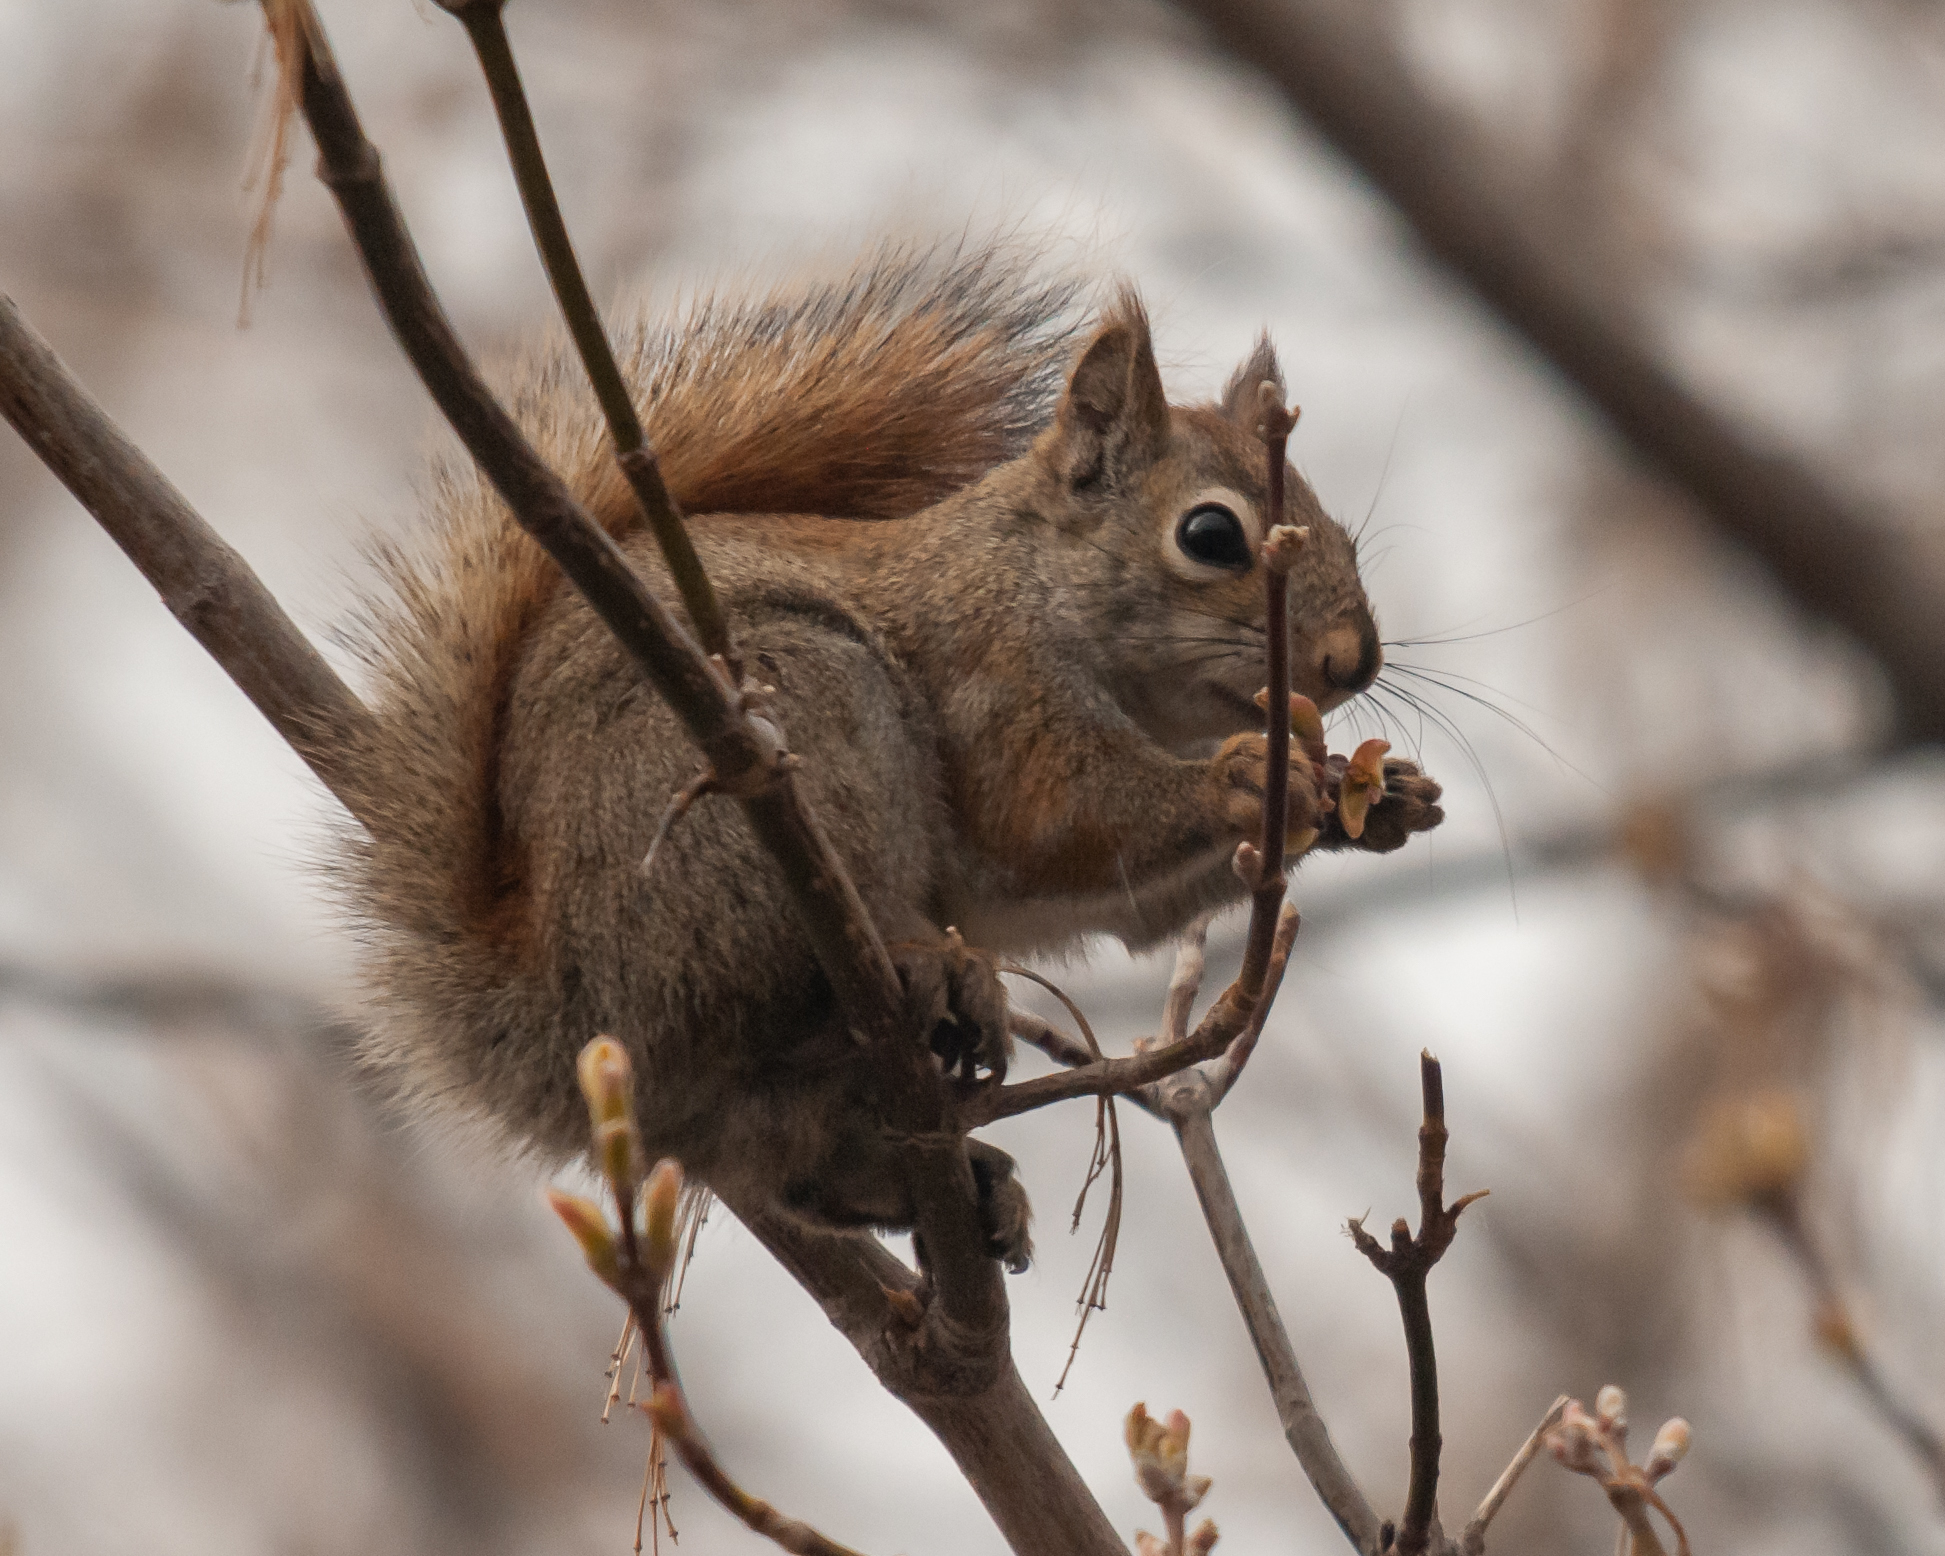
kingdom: Animalia
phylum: Chordata
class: Mammalia
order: Rodentia
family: Sciuridae
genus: Tamiasciurus
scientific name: Tamiasciurus hudsonicus
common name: Red squirrel
